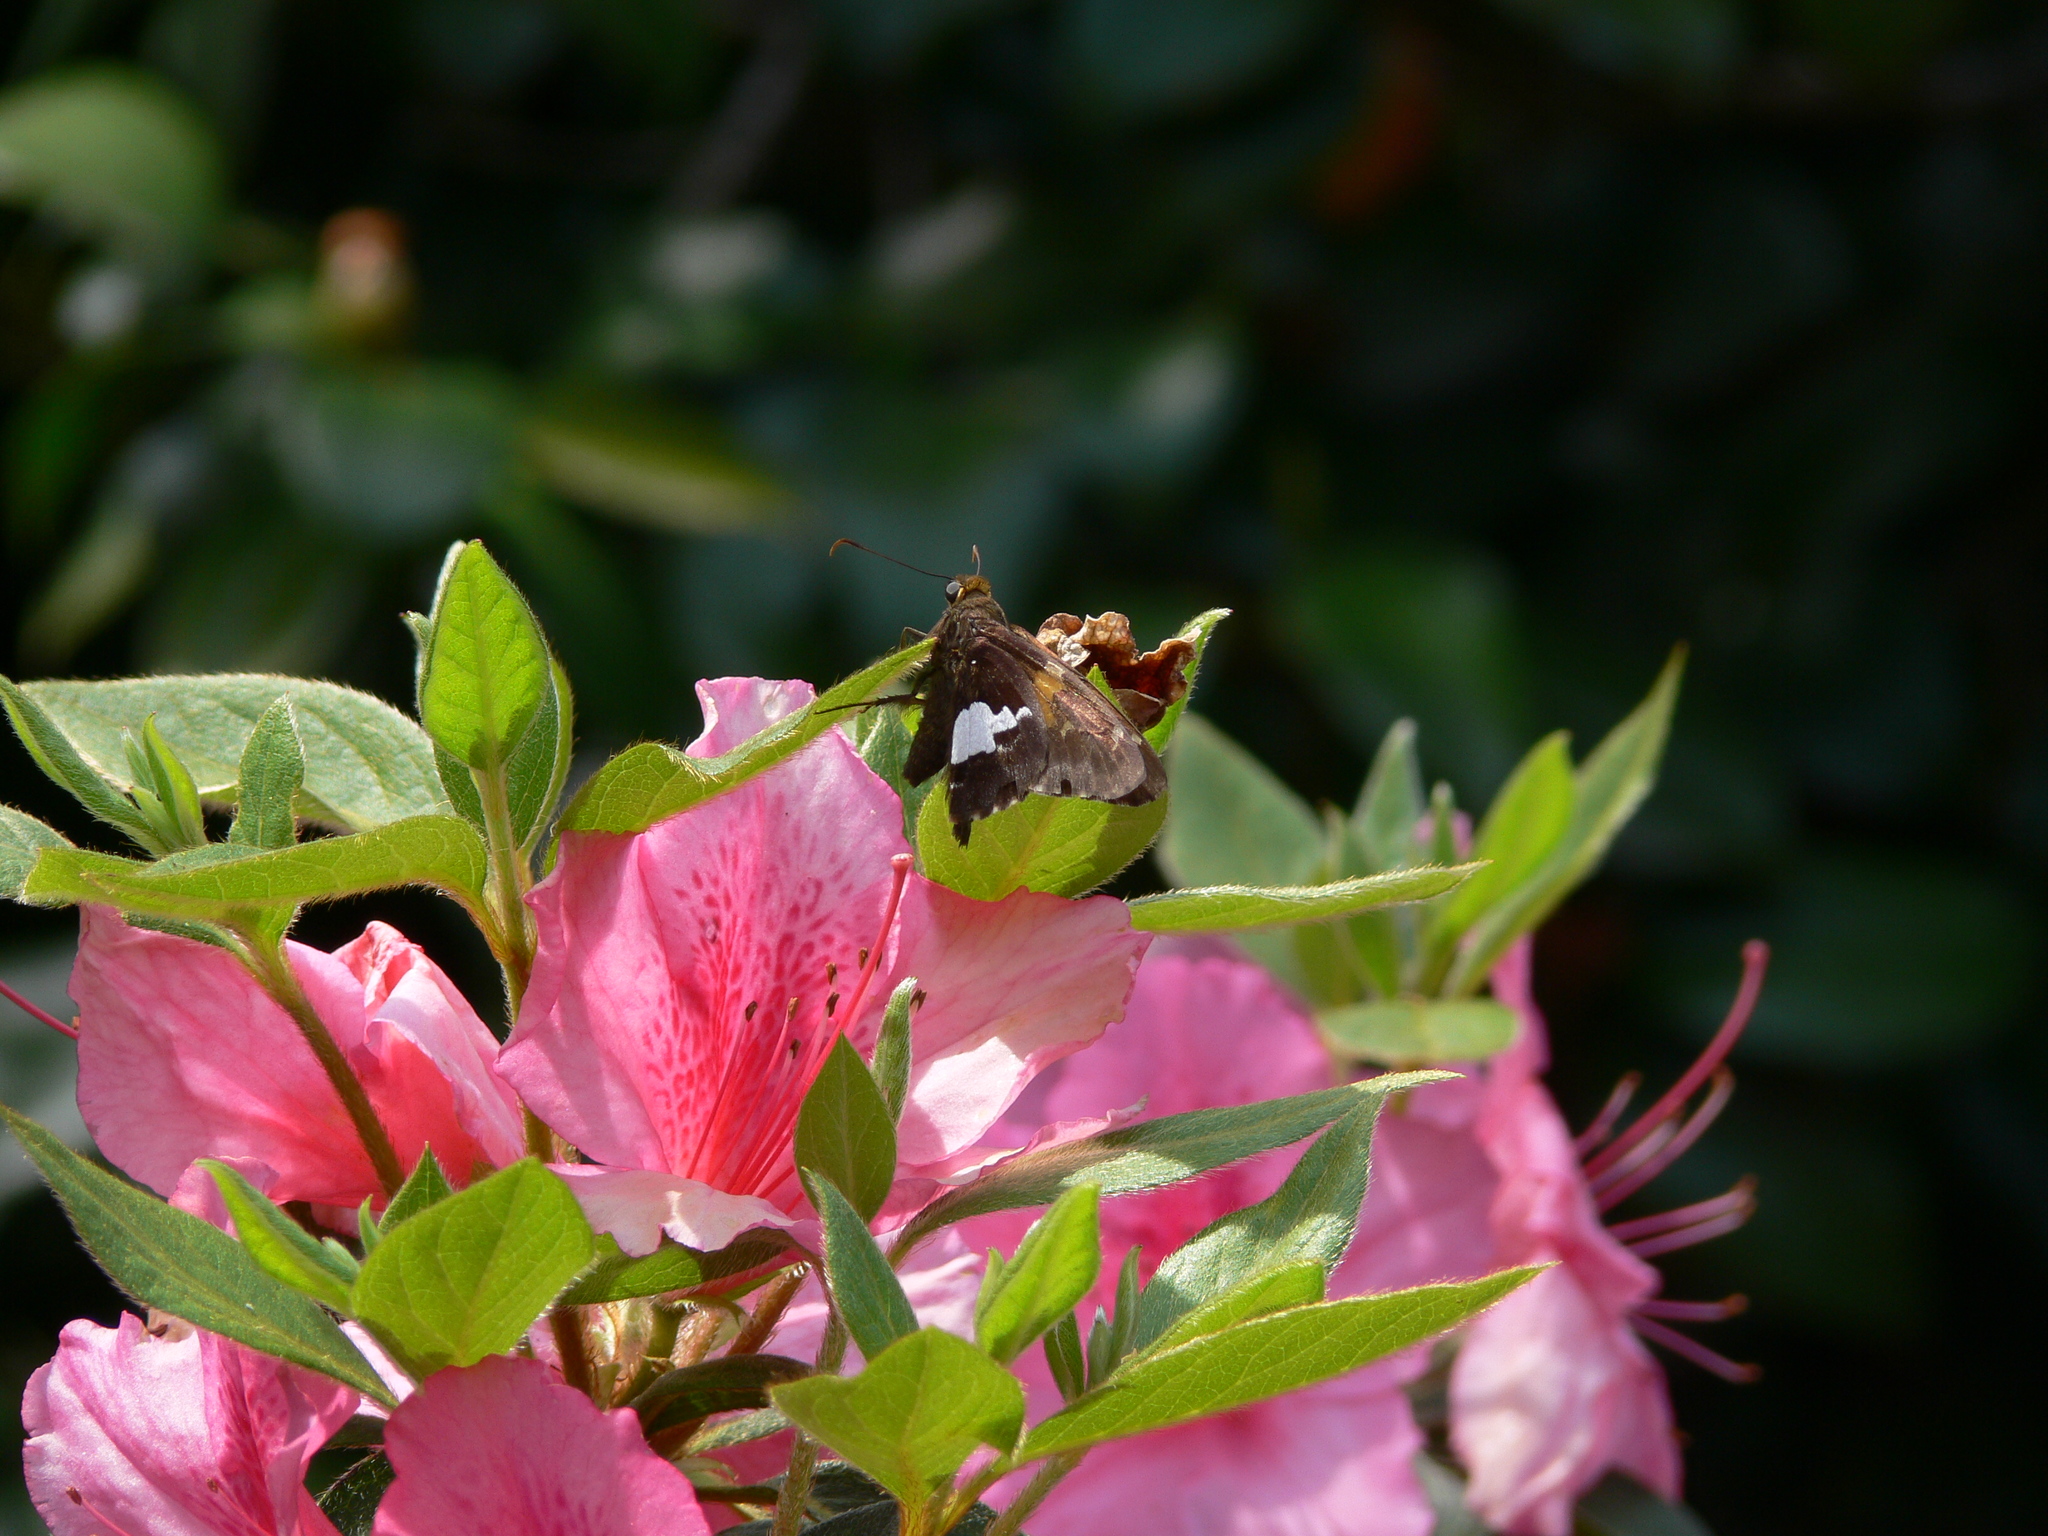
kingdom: Animalia
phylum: Arthropoda
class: Insecta
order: Lepidoptera
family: Hesperiidae
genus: Epargyreus
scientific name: Epargyreus clarus
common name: Silver-spotted skipper
